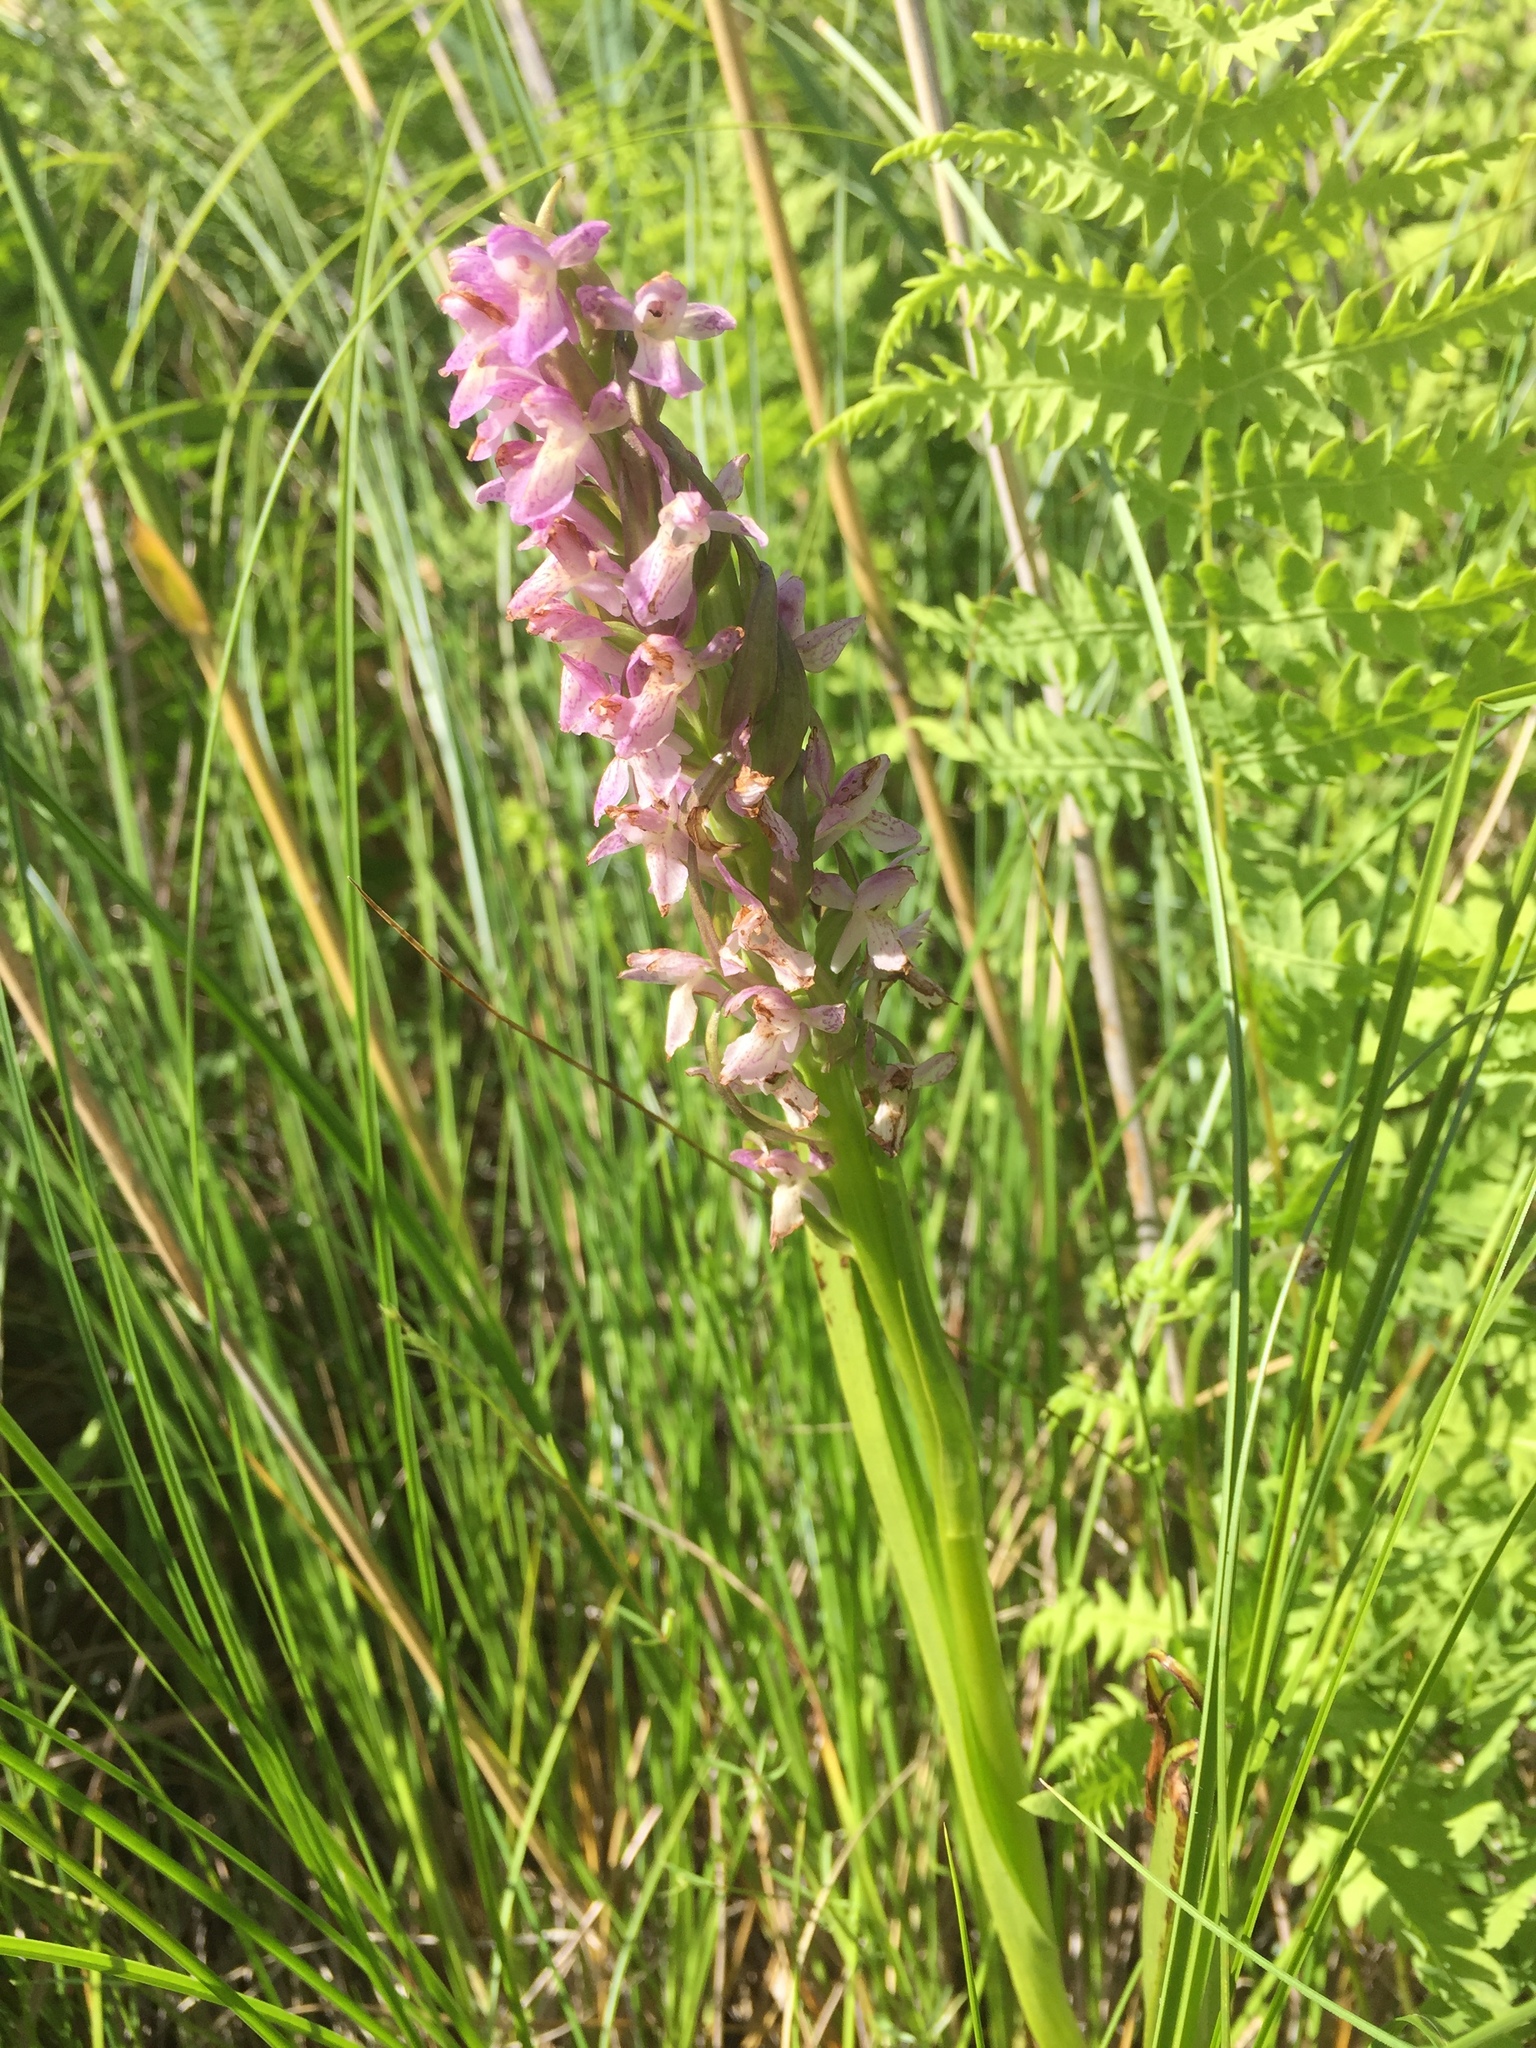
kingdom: Plantae
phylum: Tracheophyta
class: Liliopsida
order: Asparagales
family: Orchidaceae
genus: Dactylorhiza
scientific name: Dactylorhiza incarnata
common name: Early marsh-orchid
